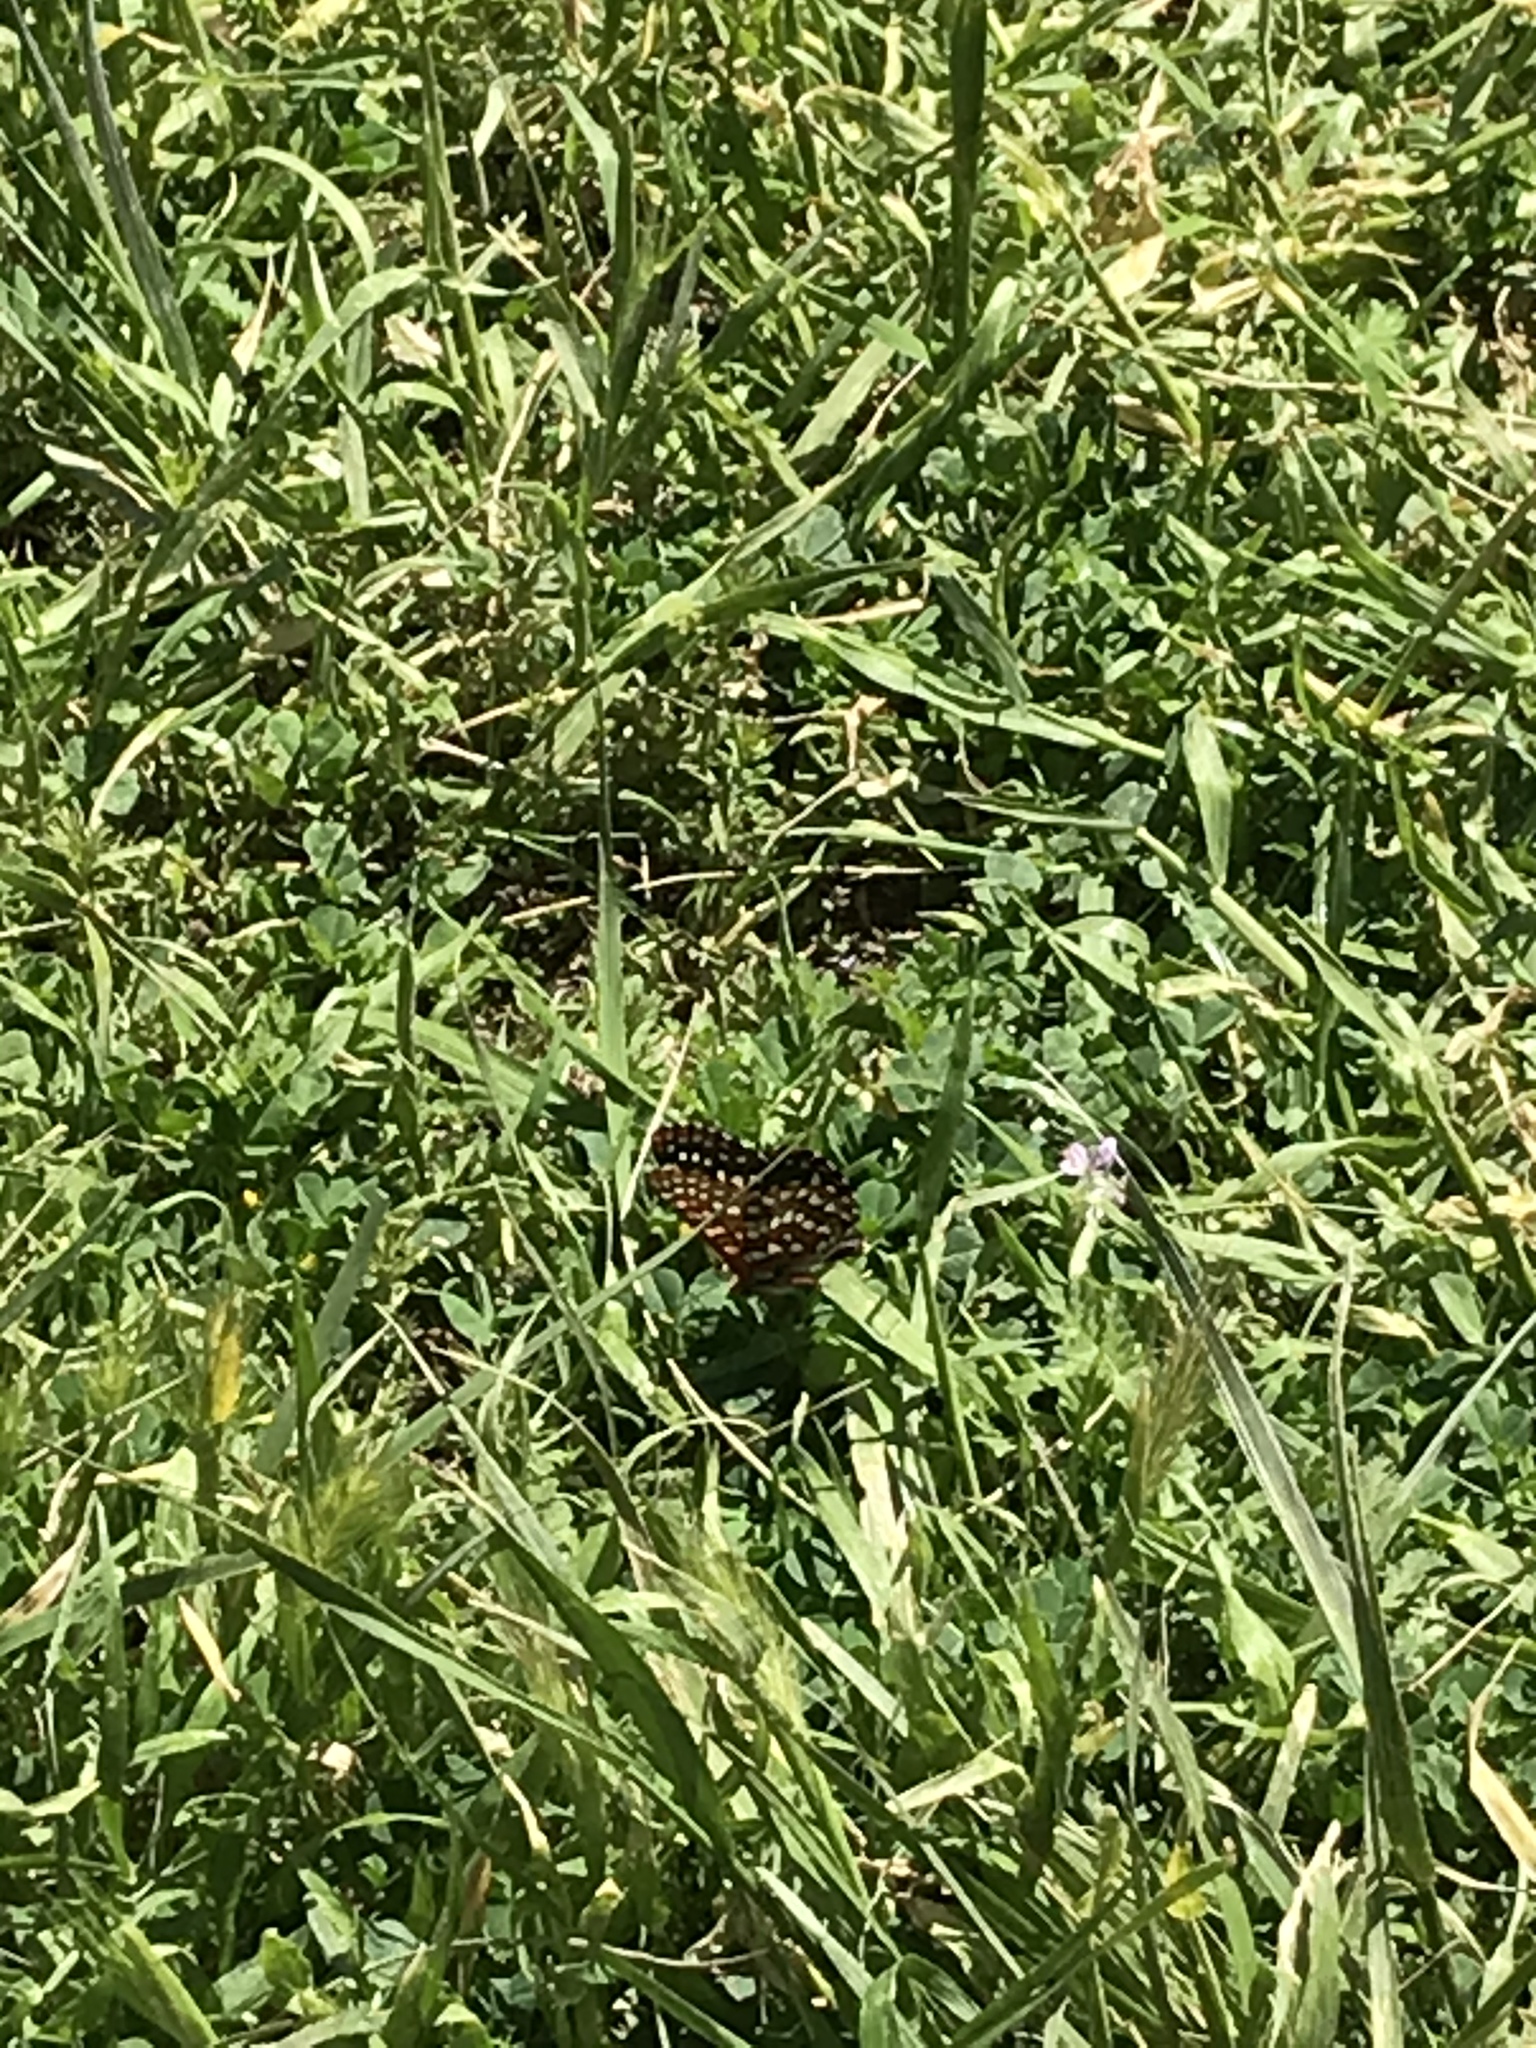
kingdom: Animalia
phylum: Arthropoda
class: Insecta
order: Lepidoptera
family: Nymphalidae
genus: Occidryas
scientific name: Occidryas chalcedona
